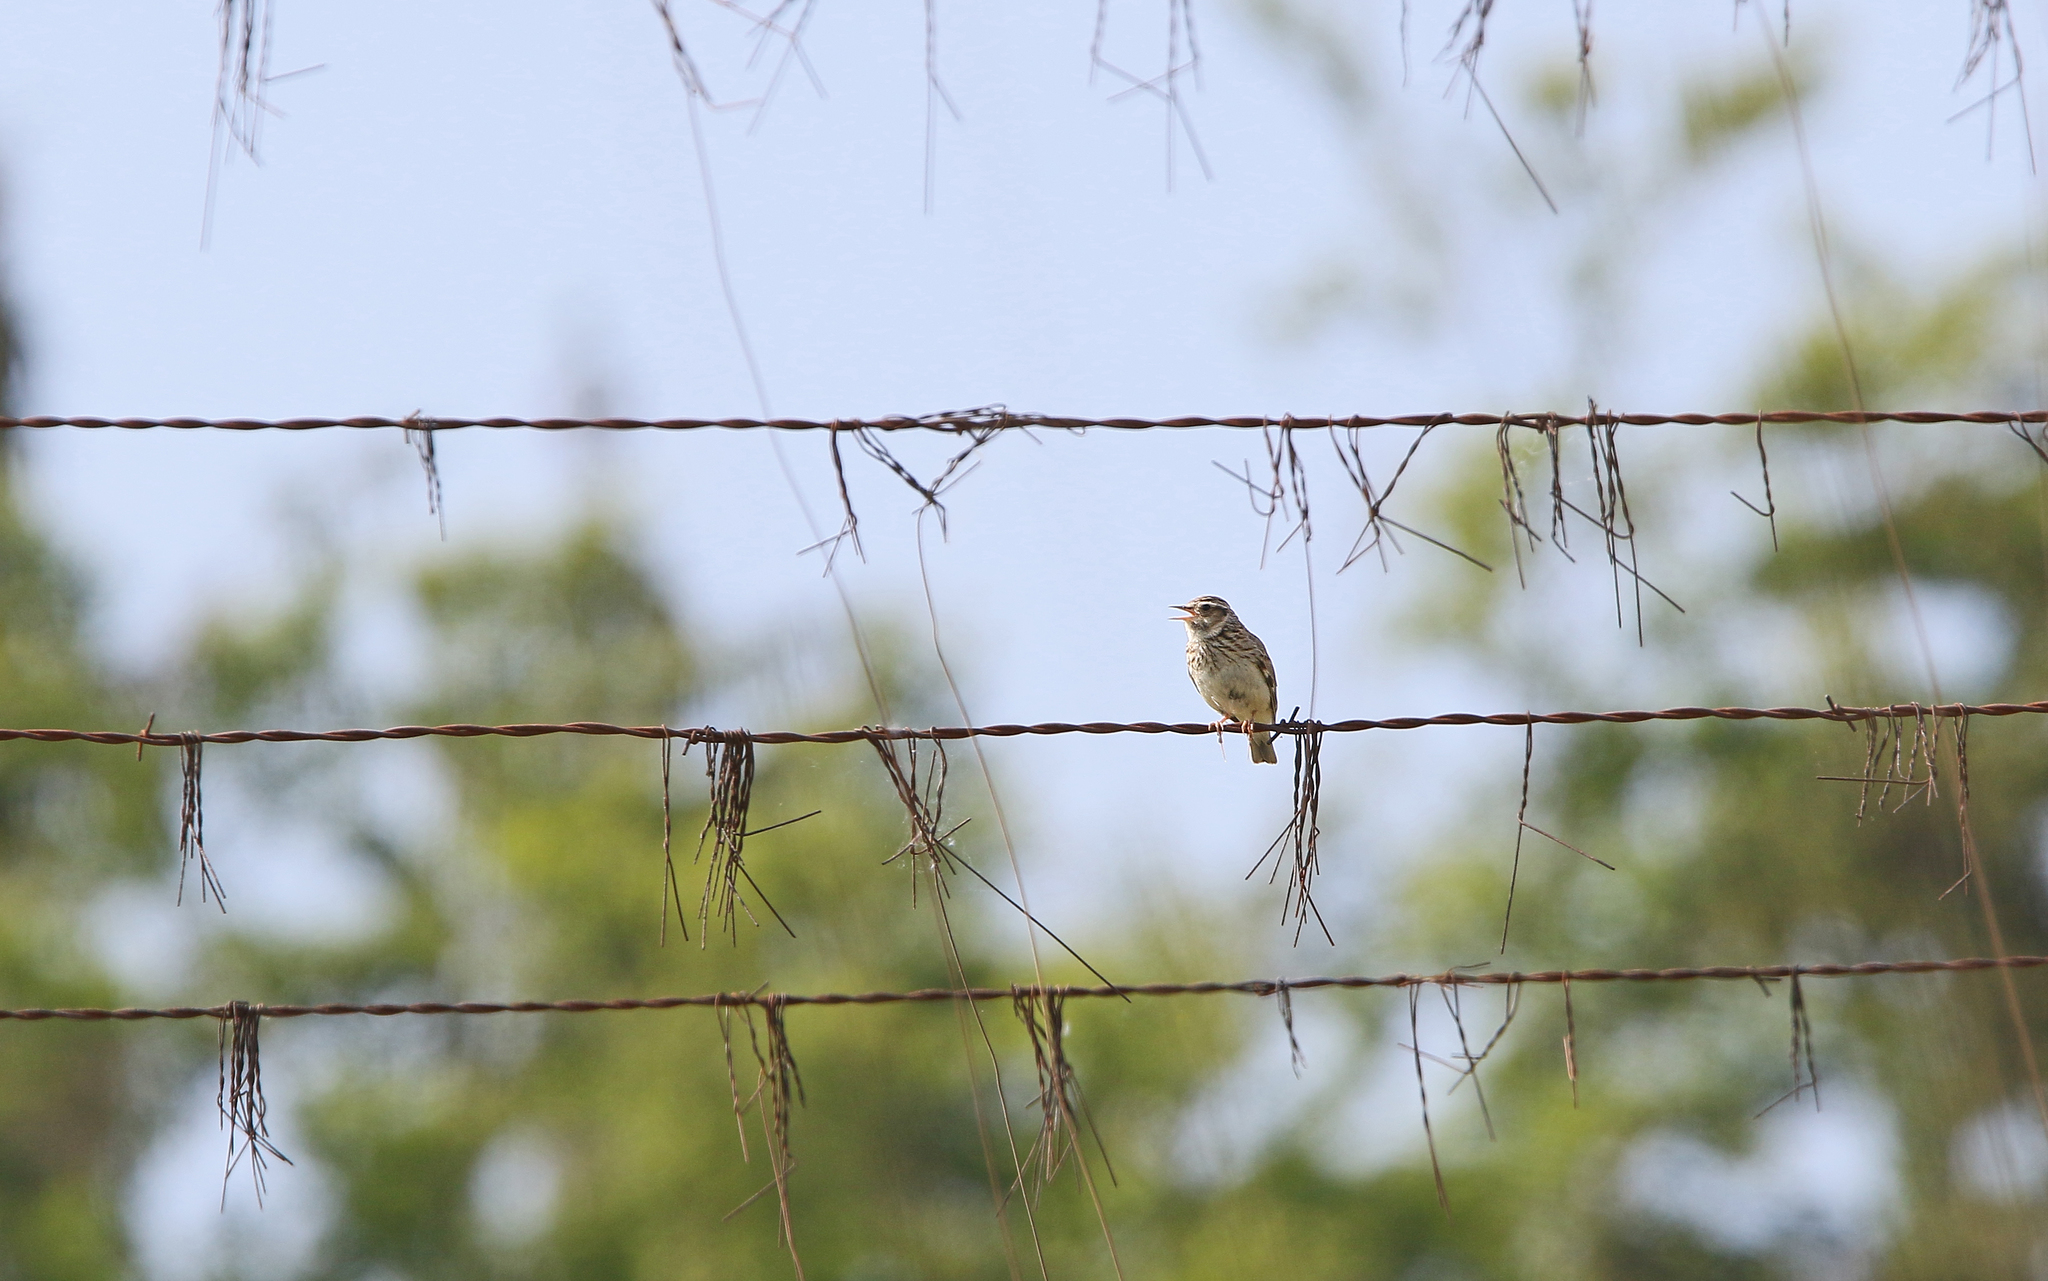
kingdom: Animalia
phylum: Chordata
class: Aves
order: Passeriformes
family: Alaudidae
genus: Lullula
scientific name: Lullula arborea
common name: Woodlark
